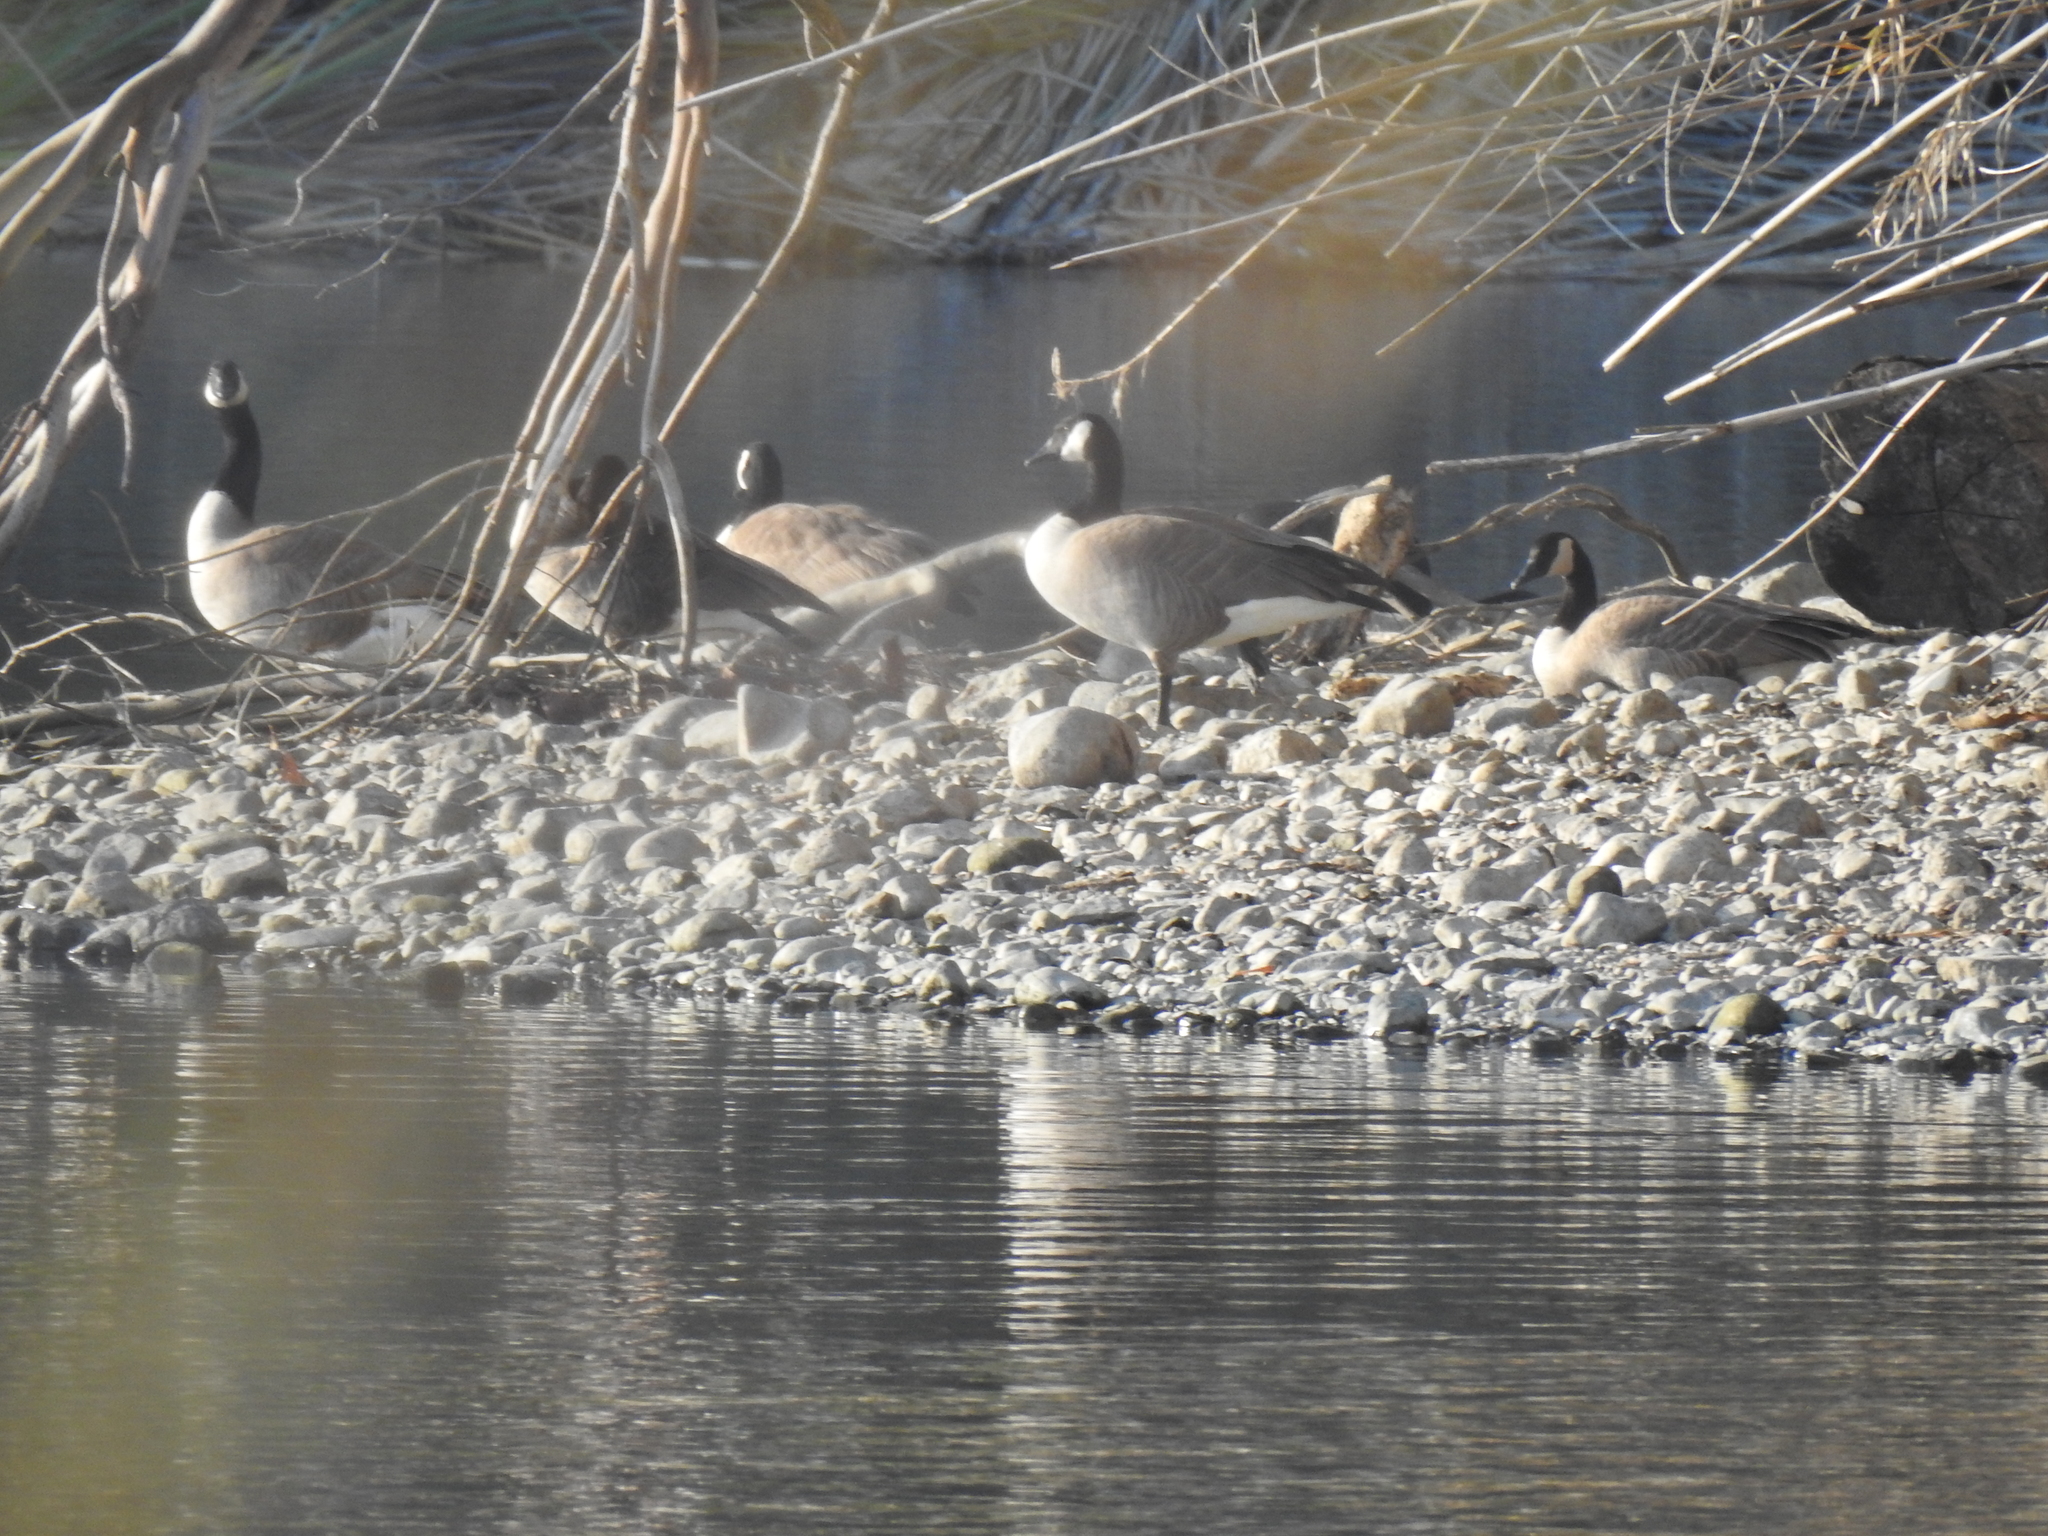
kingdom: Animalia
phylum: Chordata
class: Aves
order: Anseriformes
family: Anatidae
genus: Branta
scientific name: Branta canadensis
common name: Canada goose
